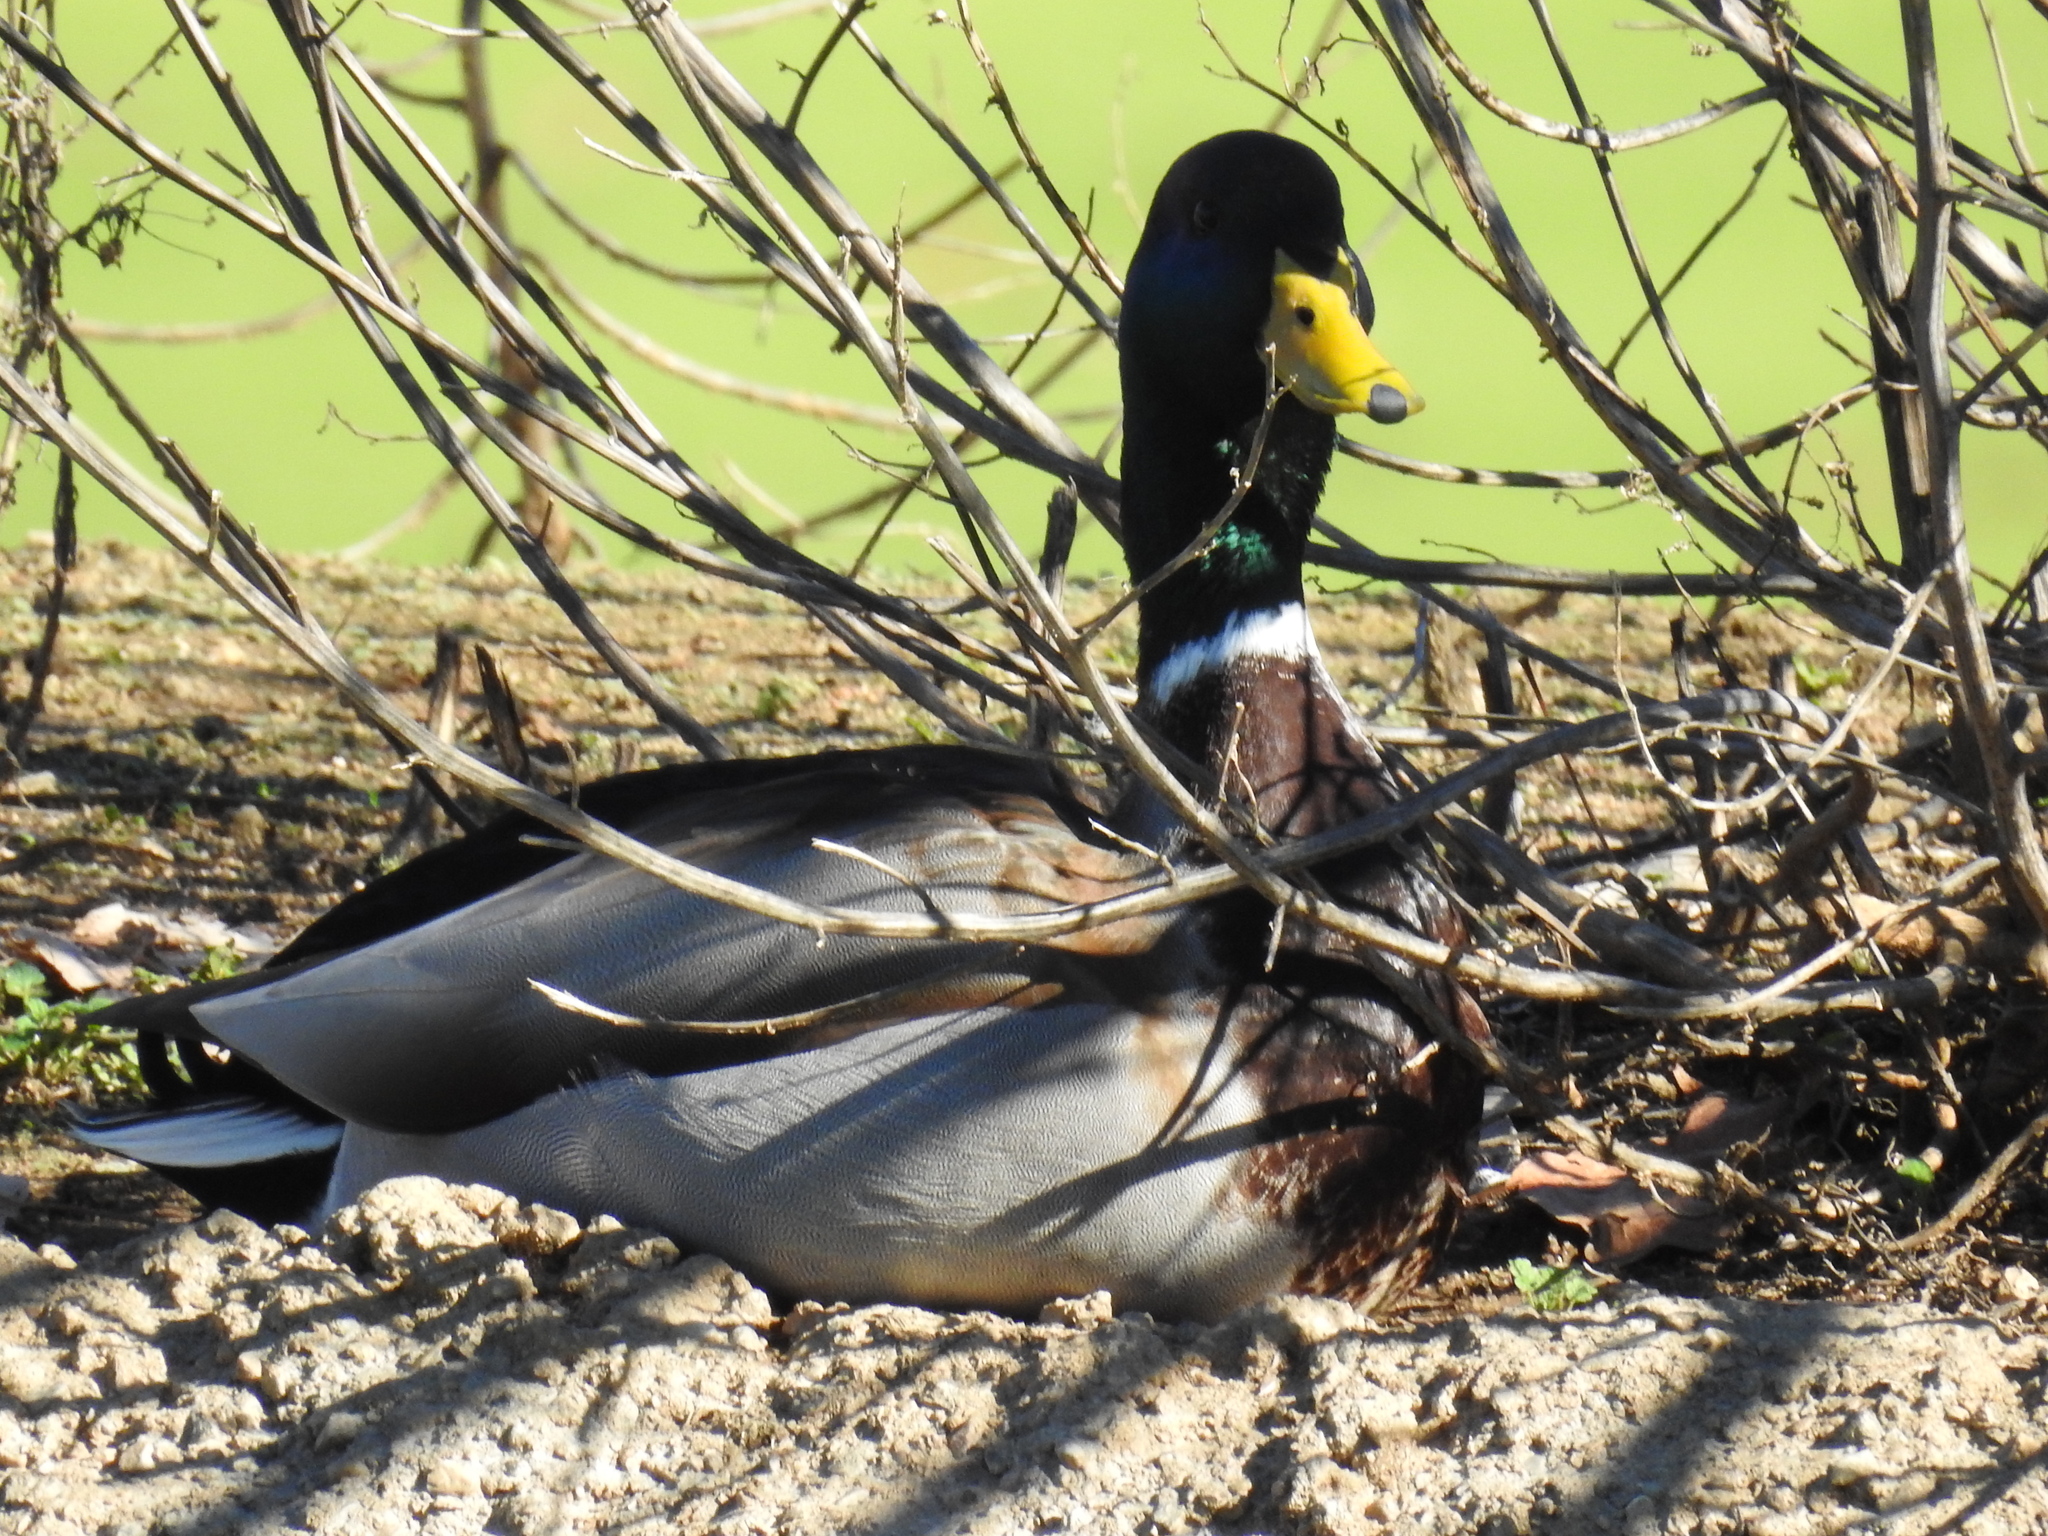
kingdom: Animalia
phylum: Chordata
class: Aves
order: Anseriformes
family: Anatidae
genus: Anas
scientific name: Anas platyrhynchos
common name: Mallard
